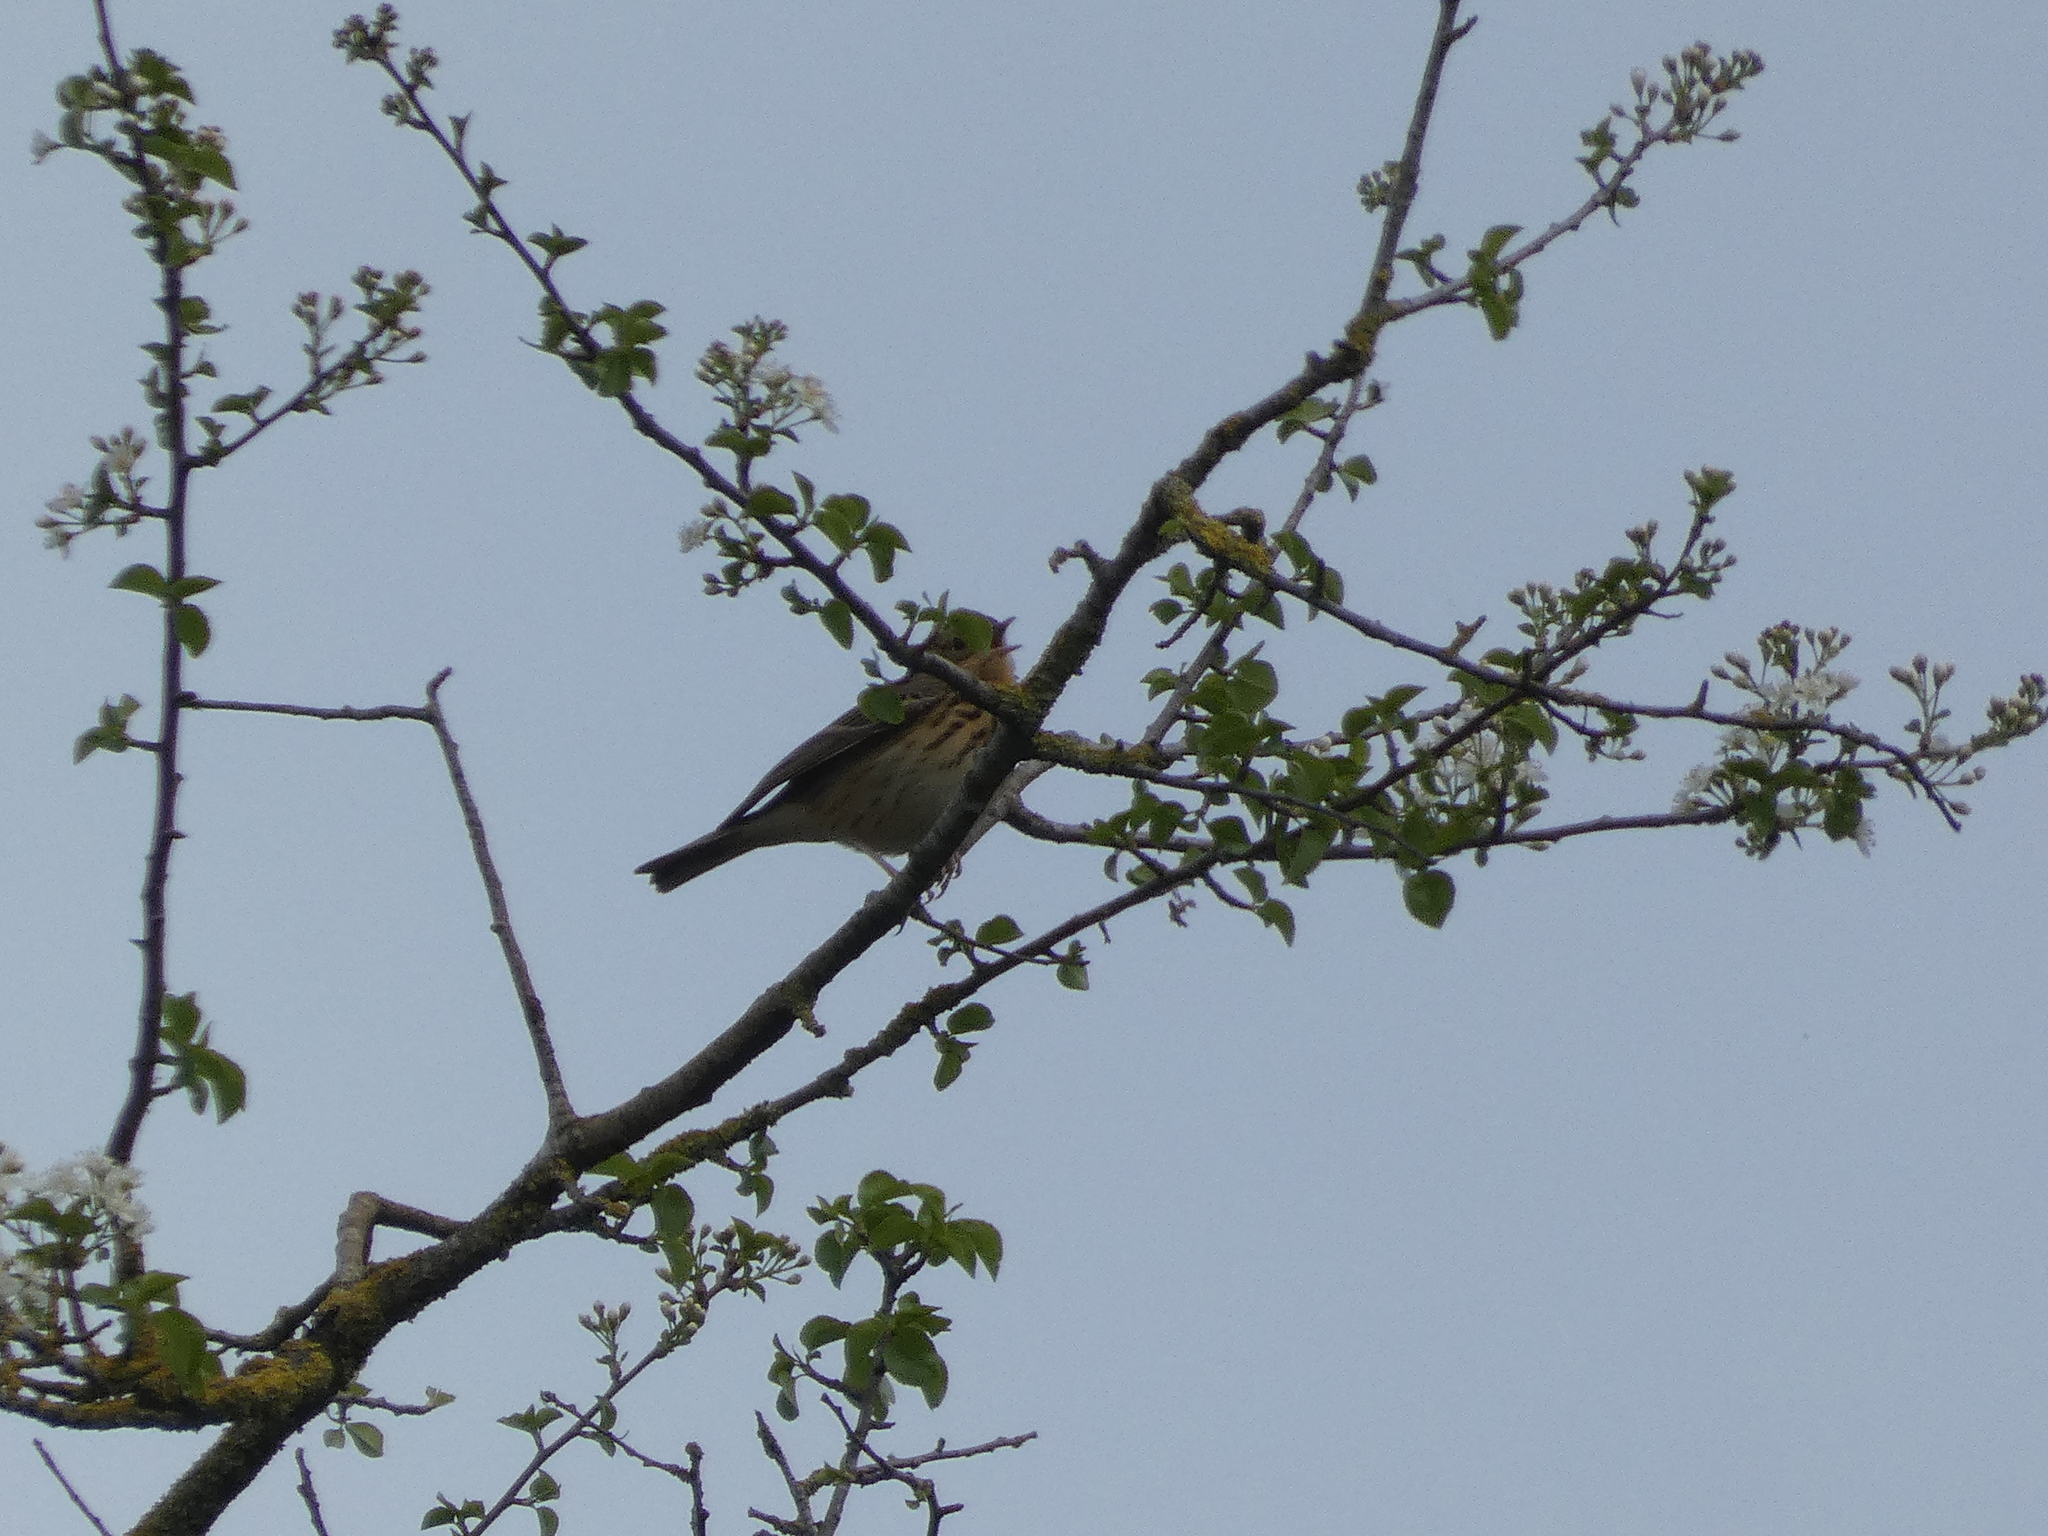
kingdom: Animalia
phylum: Chordata
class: Aves
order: Passeriformes
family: Motacillidae
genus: Anthus
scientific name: Anthus trivialis
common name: Tree pipit
